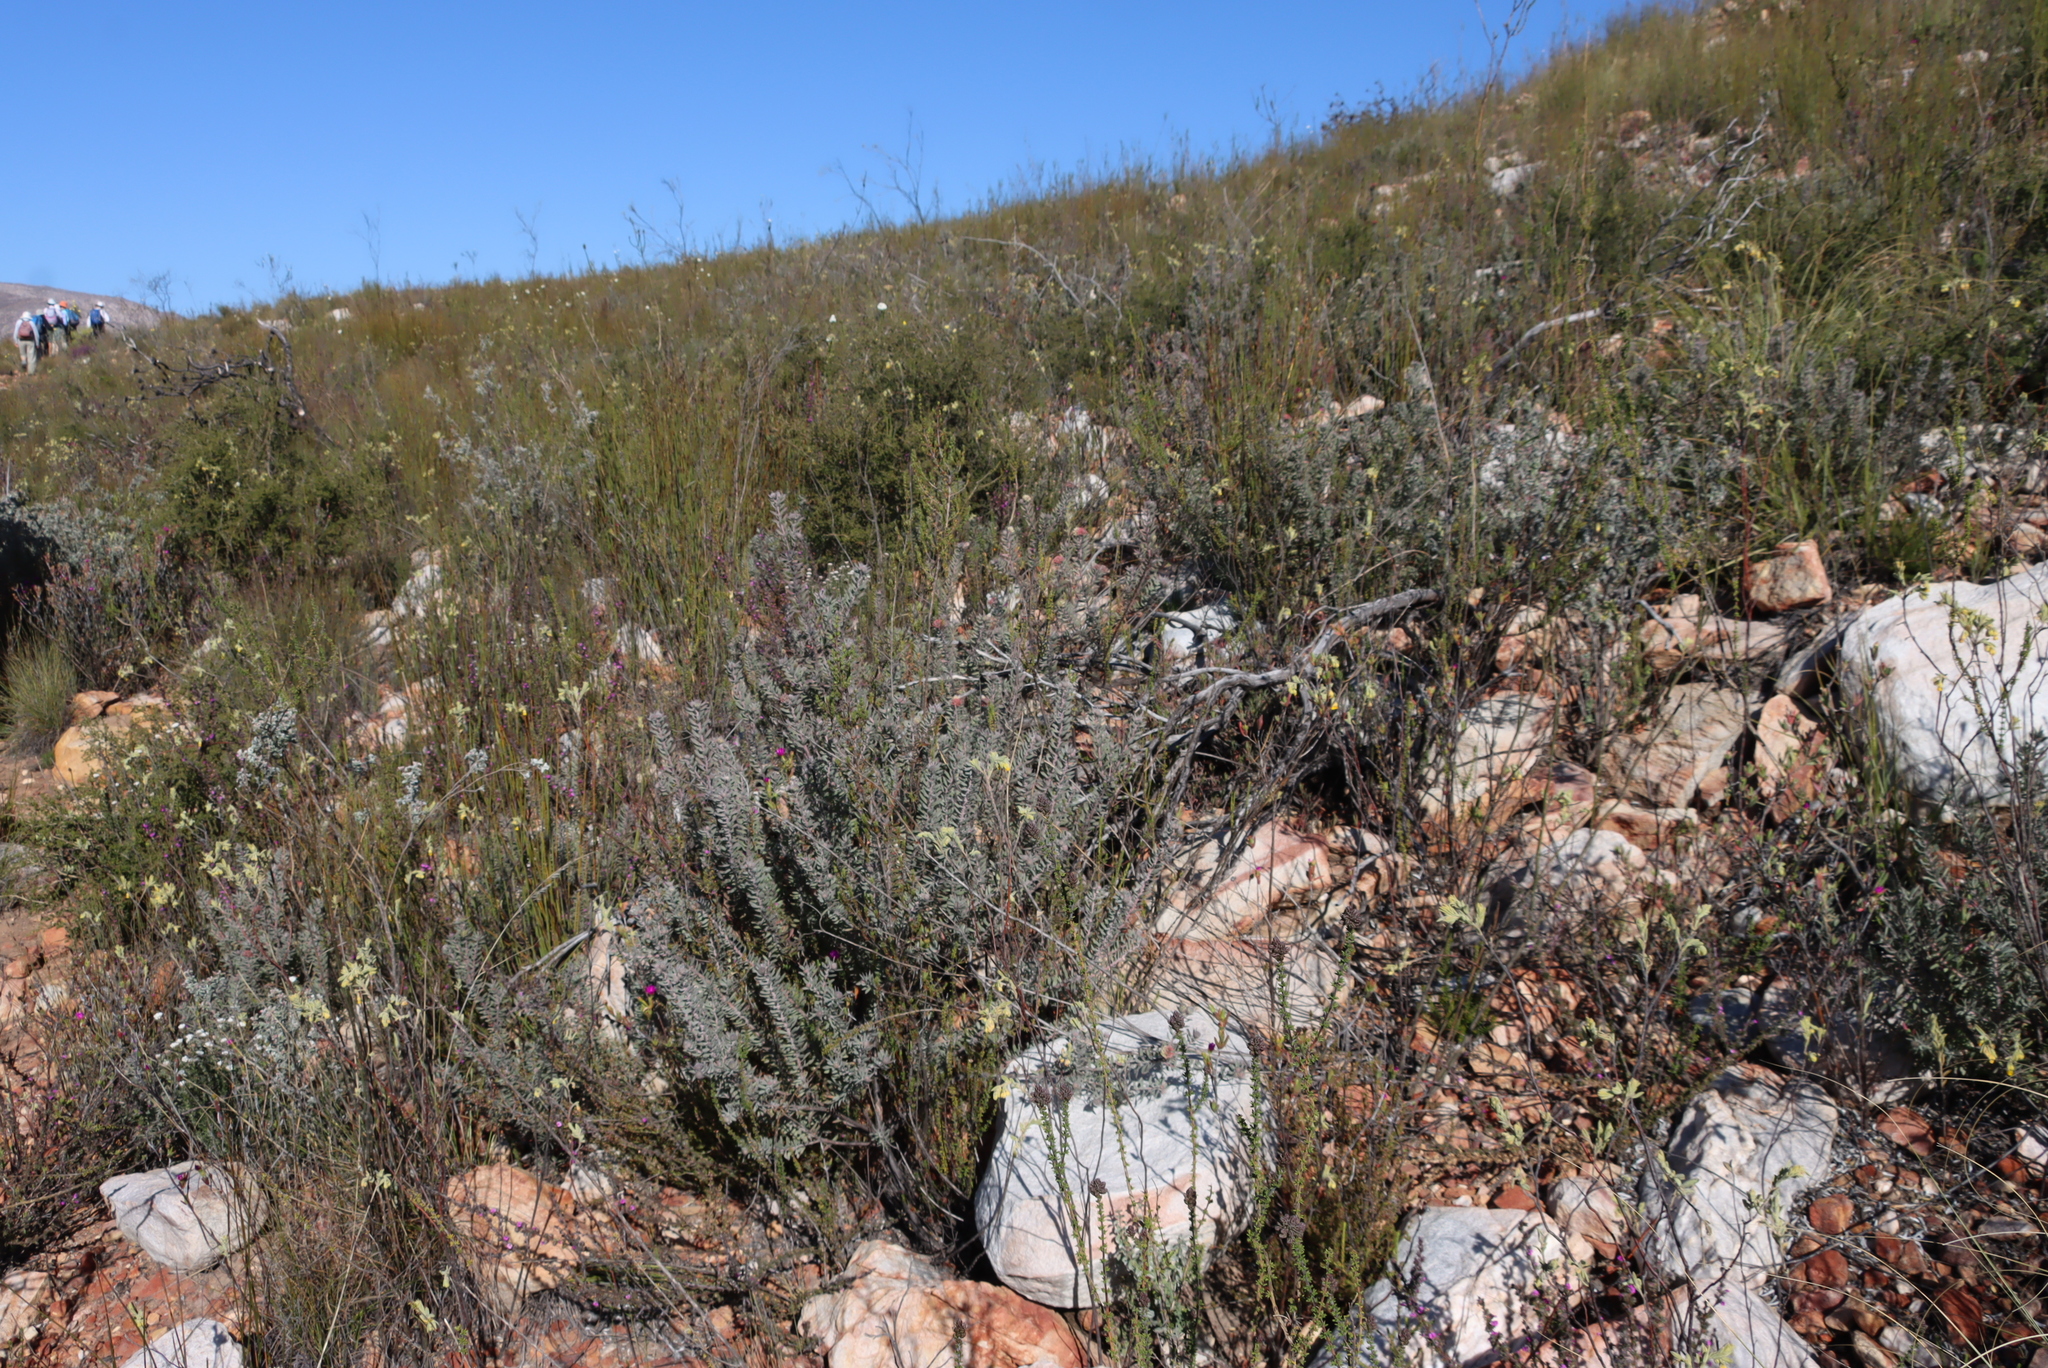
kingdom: Plantae
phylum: Tracheophyta
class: Magnoliopsida
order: Proteales
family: Proteaceae
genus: Leucospermum
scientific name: Leucospermum wittebergense
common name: Swartberg pincushion
